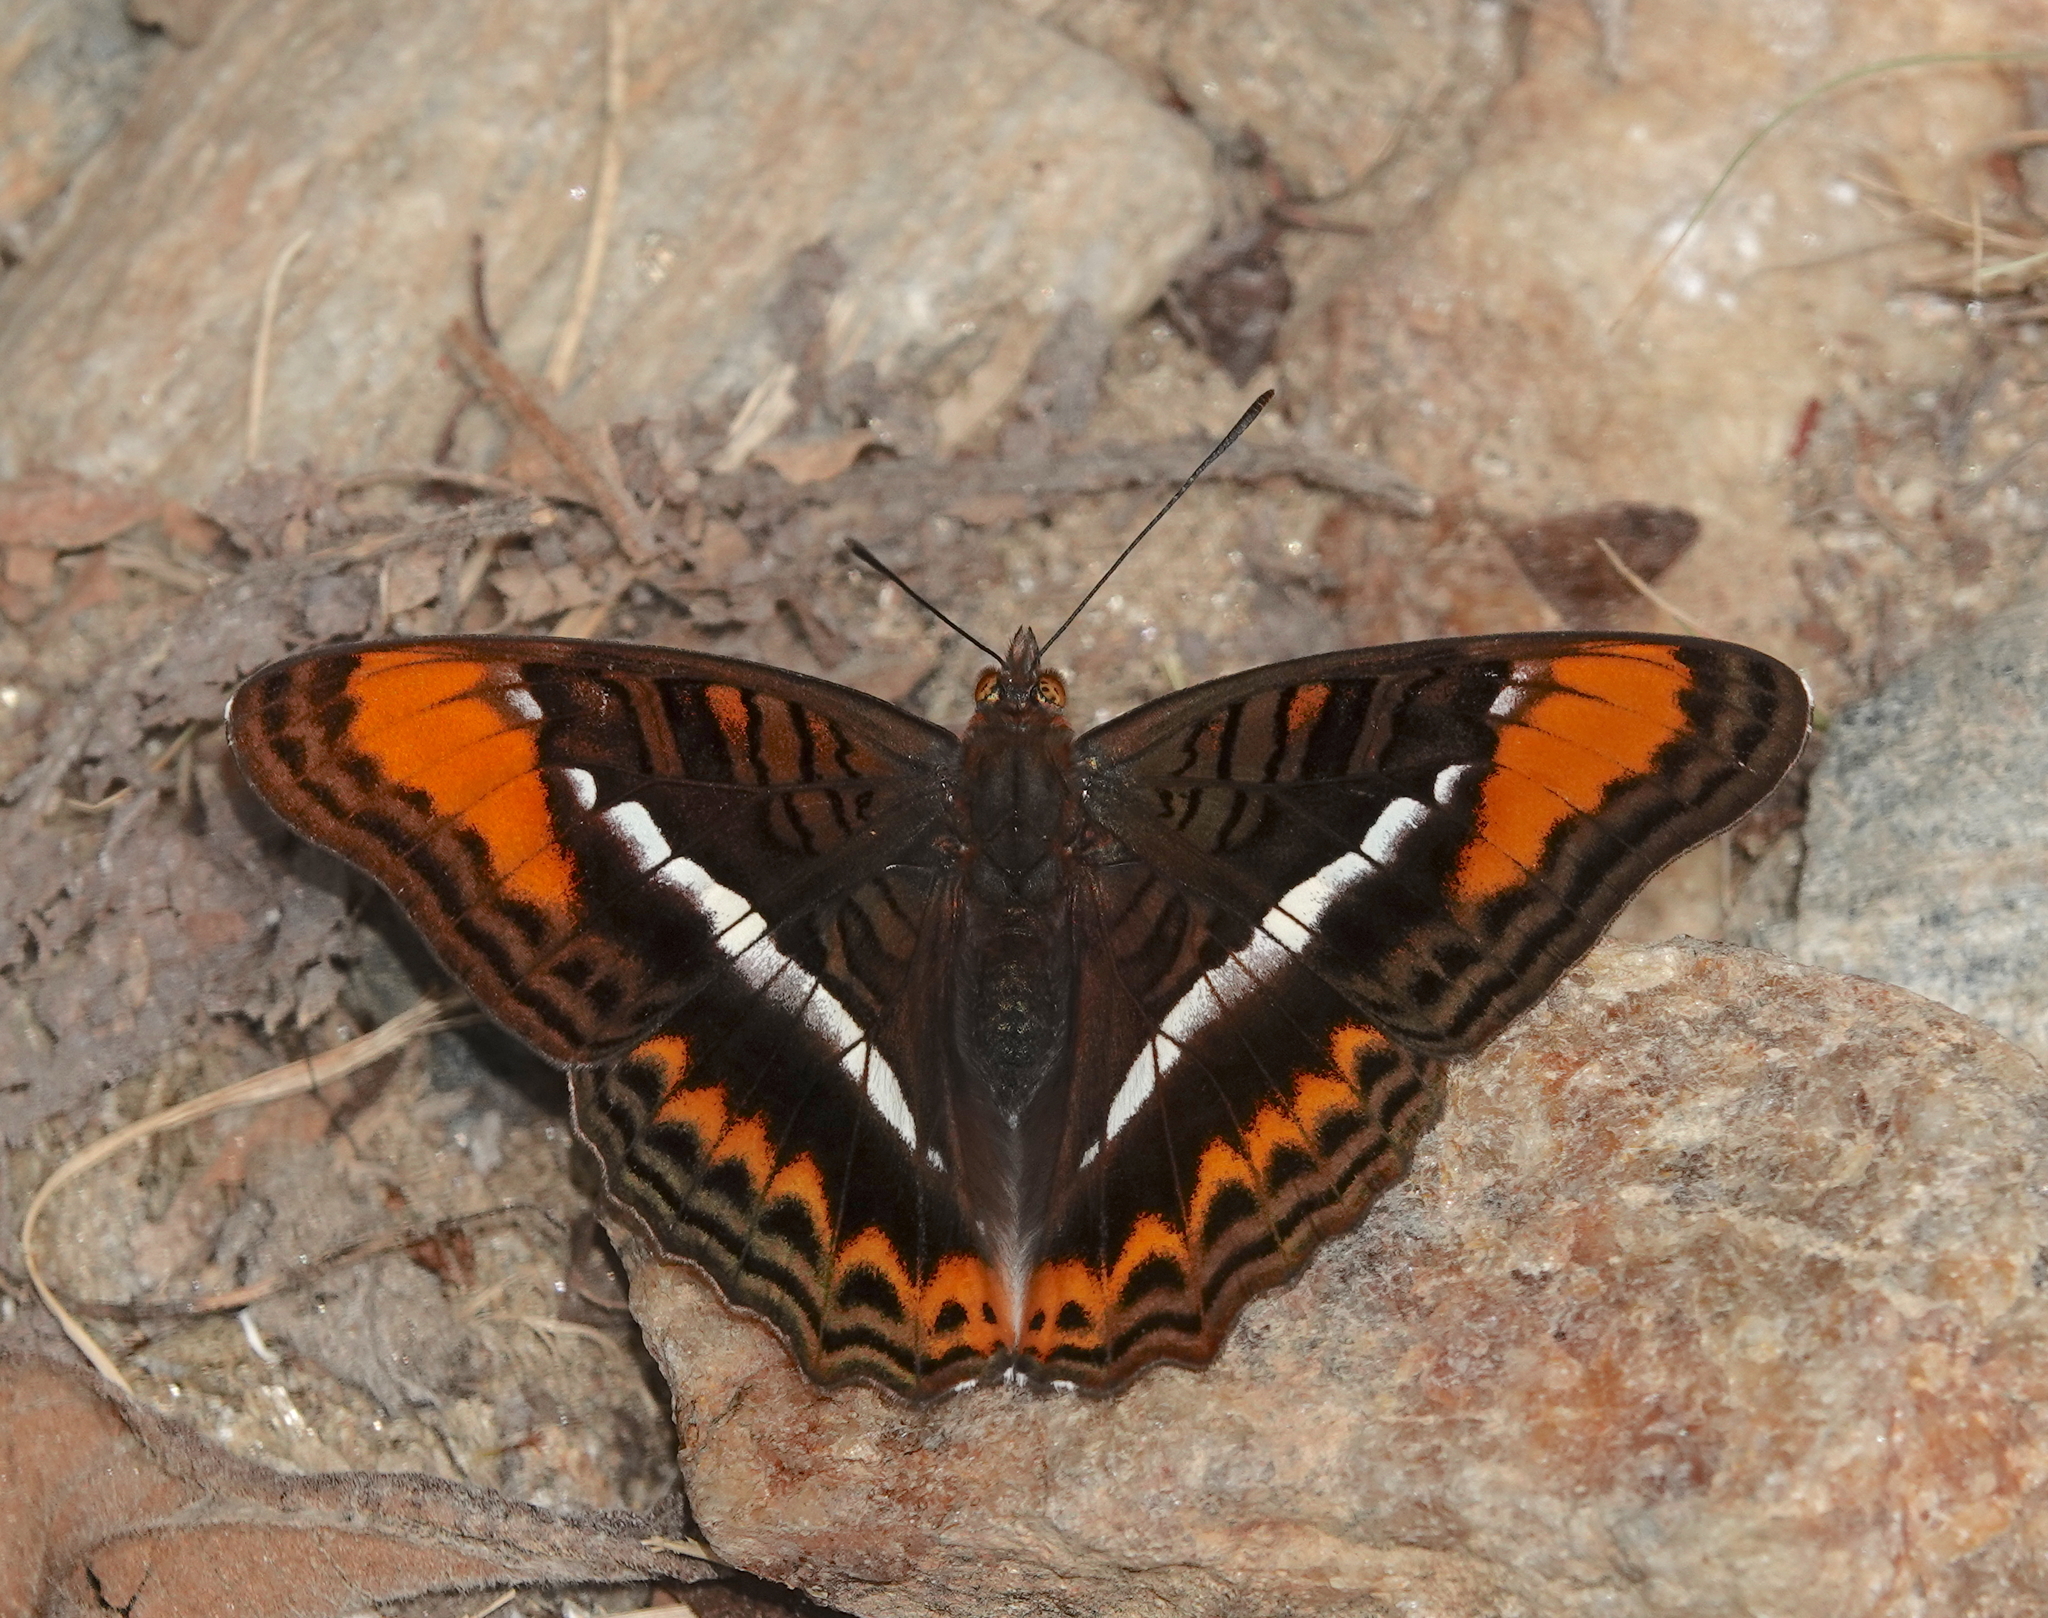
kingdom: Animalia
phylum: Arthropoda
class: Insecta
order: Lepidoptera
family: Nymphalidae
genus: Limenitis
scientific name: Limenitis corcyra
